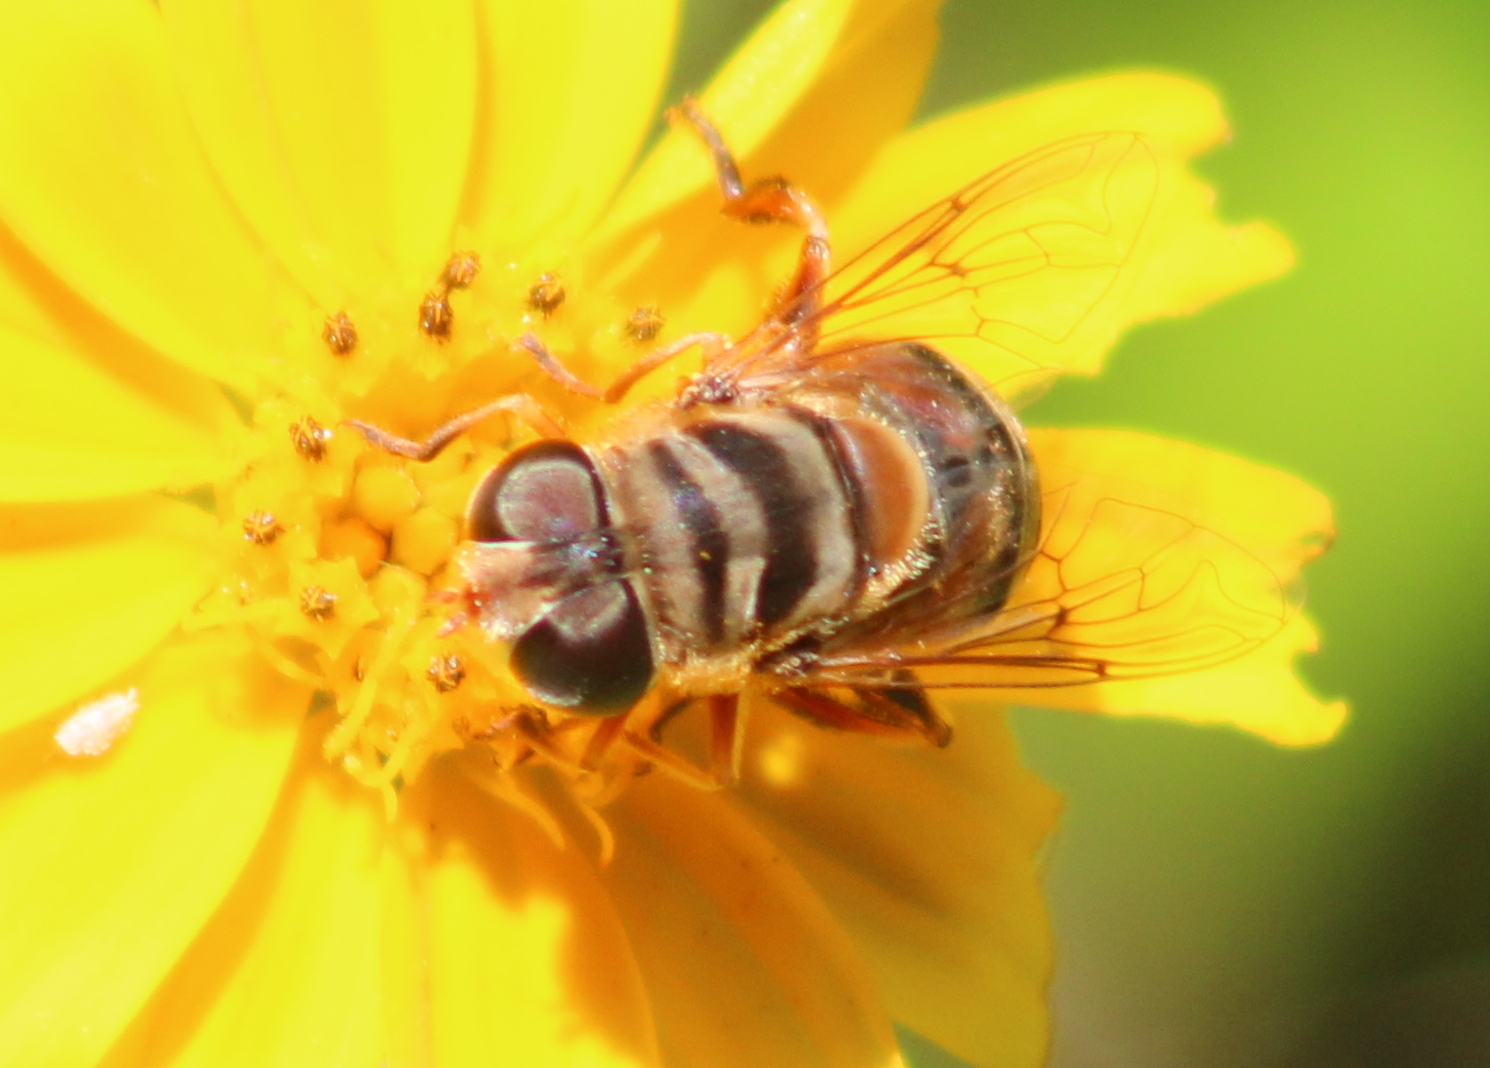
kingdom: Animalia
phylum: Arthropoda
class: Insecta
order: Diptera
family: Syrphidae
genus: Palpada
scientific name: Palpada vinetorum
